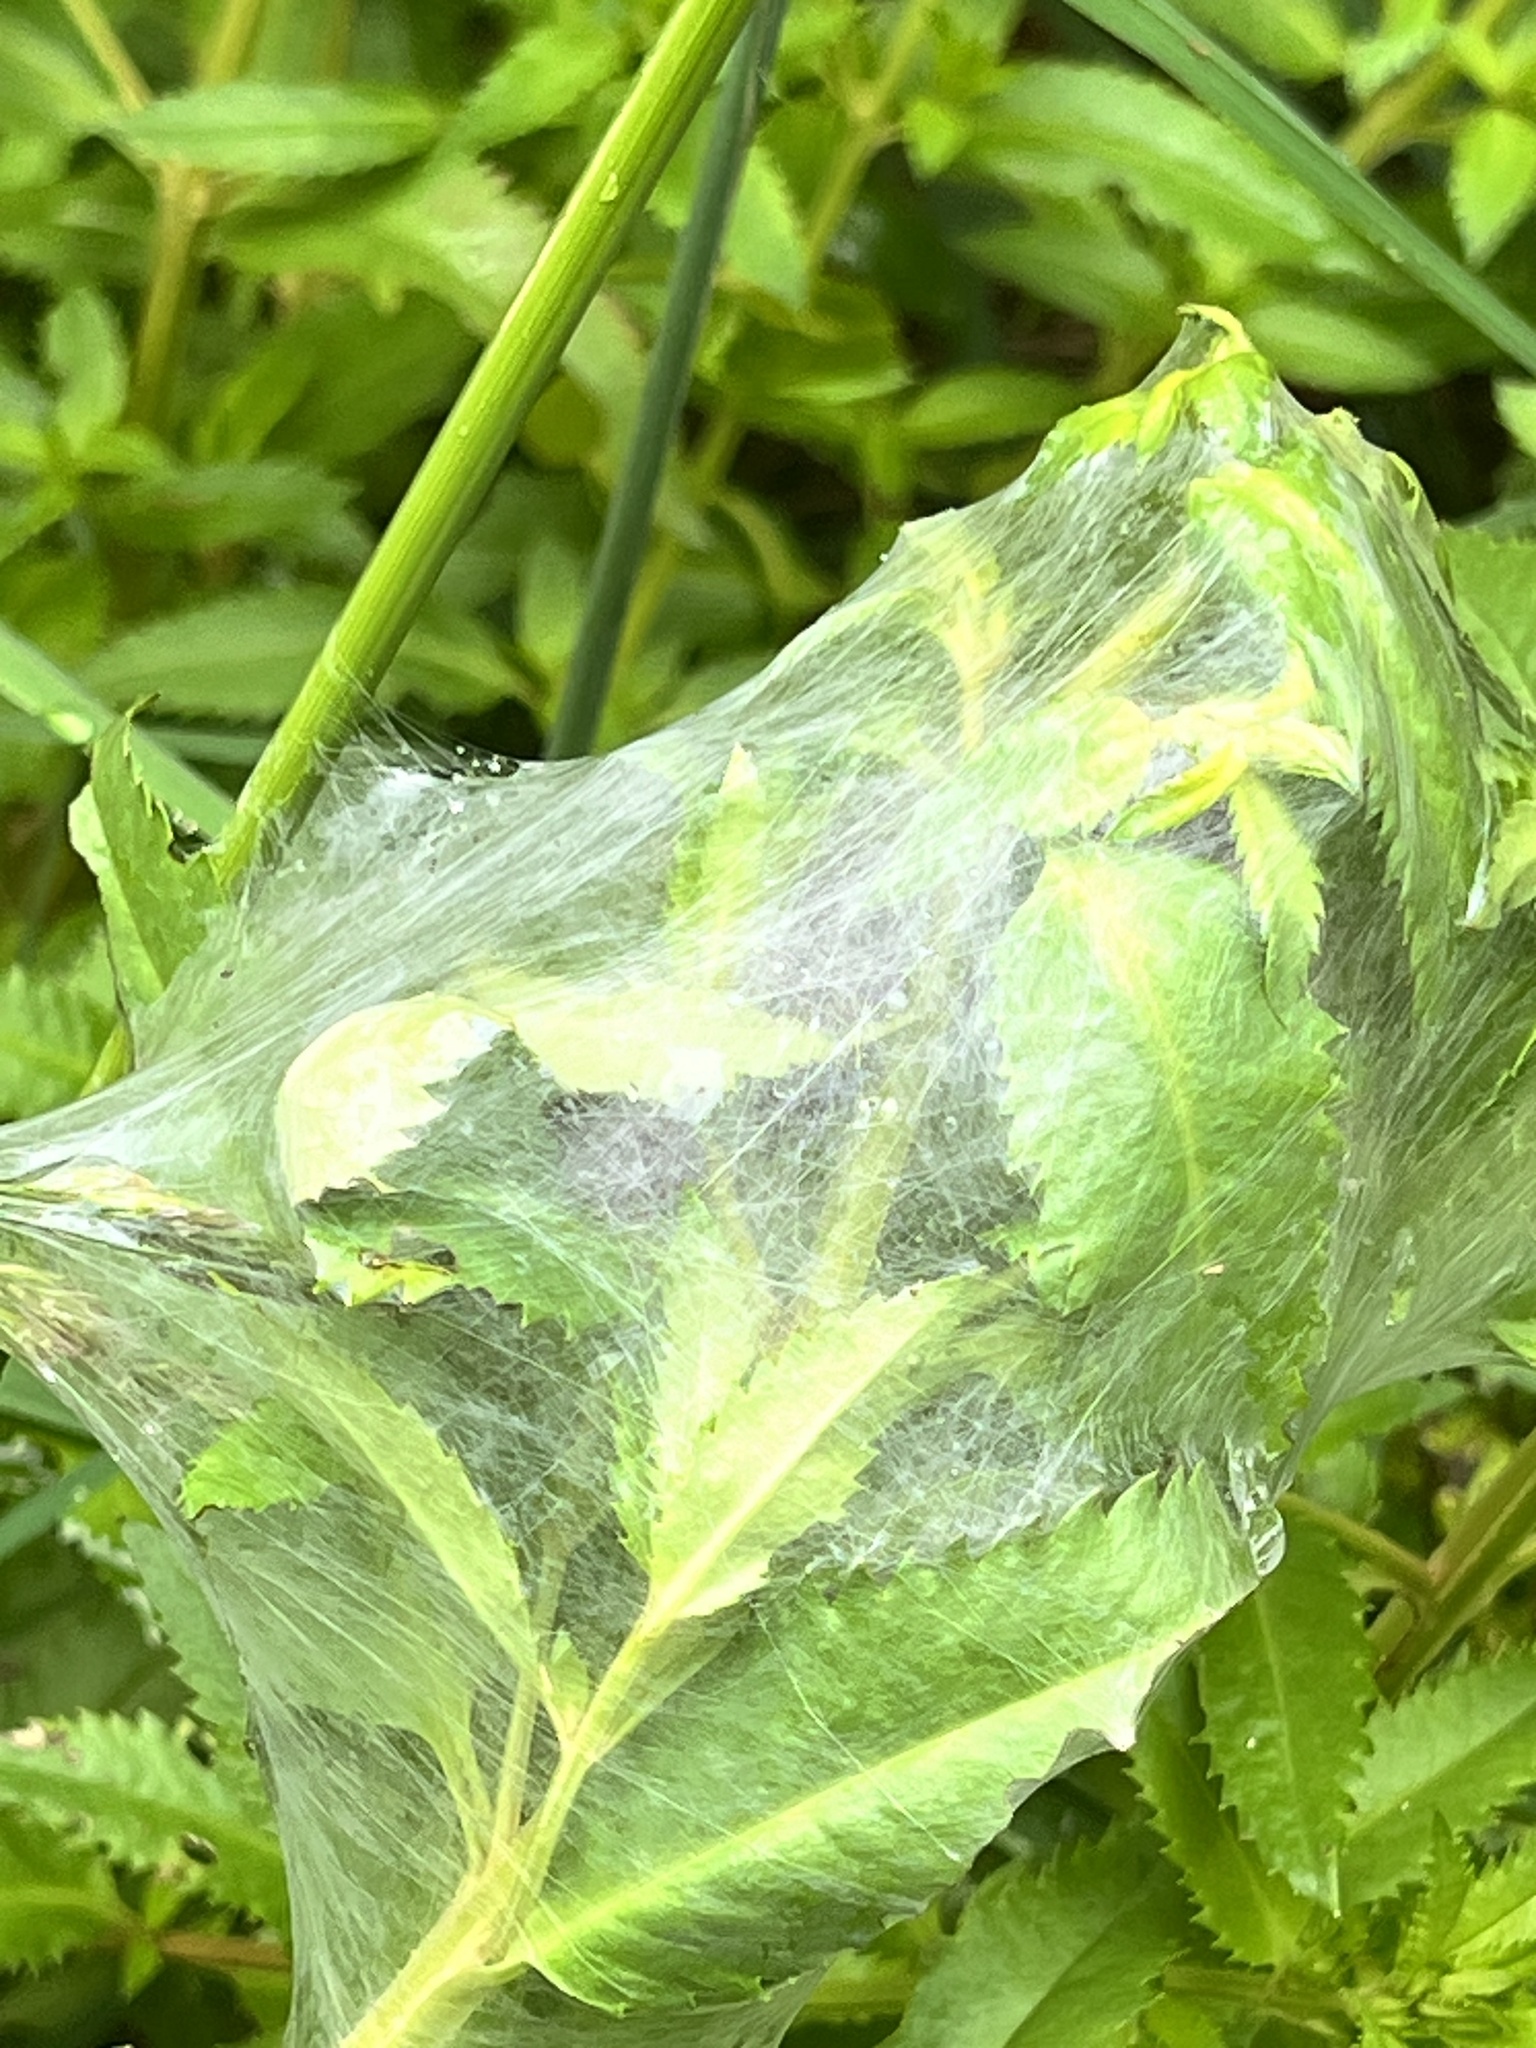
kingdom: Animalia
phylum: Arthropoda
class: Arachnida
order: Araneae
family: Pisauridae
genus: Dolomedes
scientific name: Dolomedes minor
